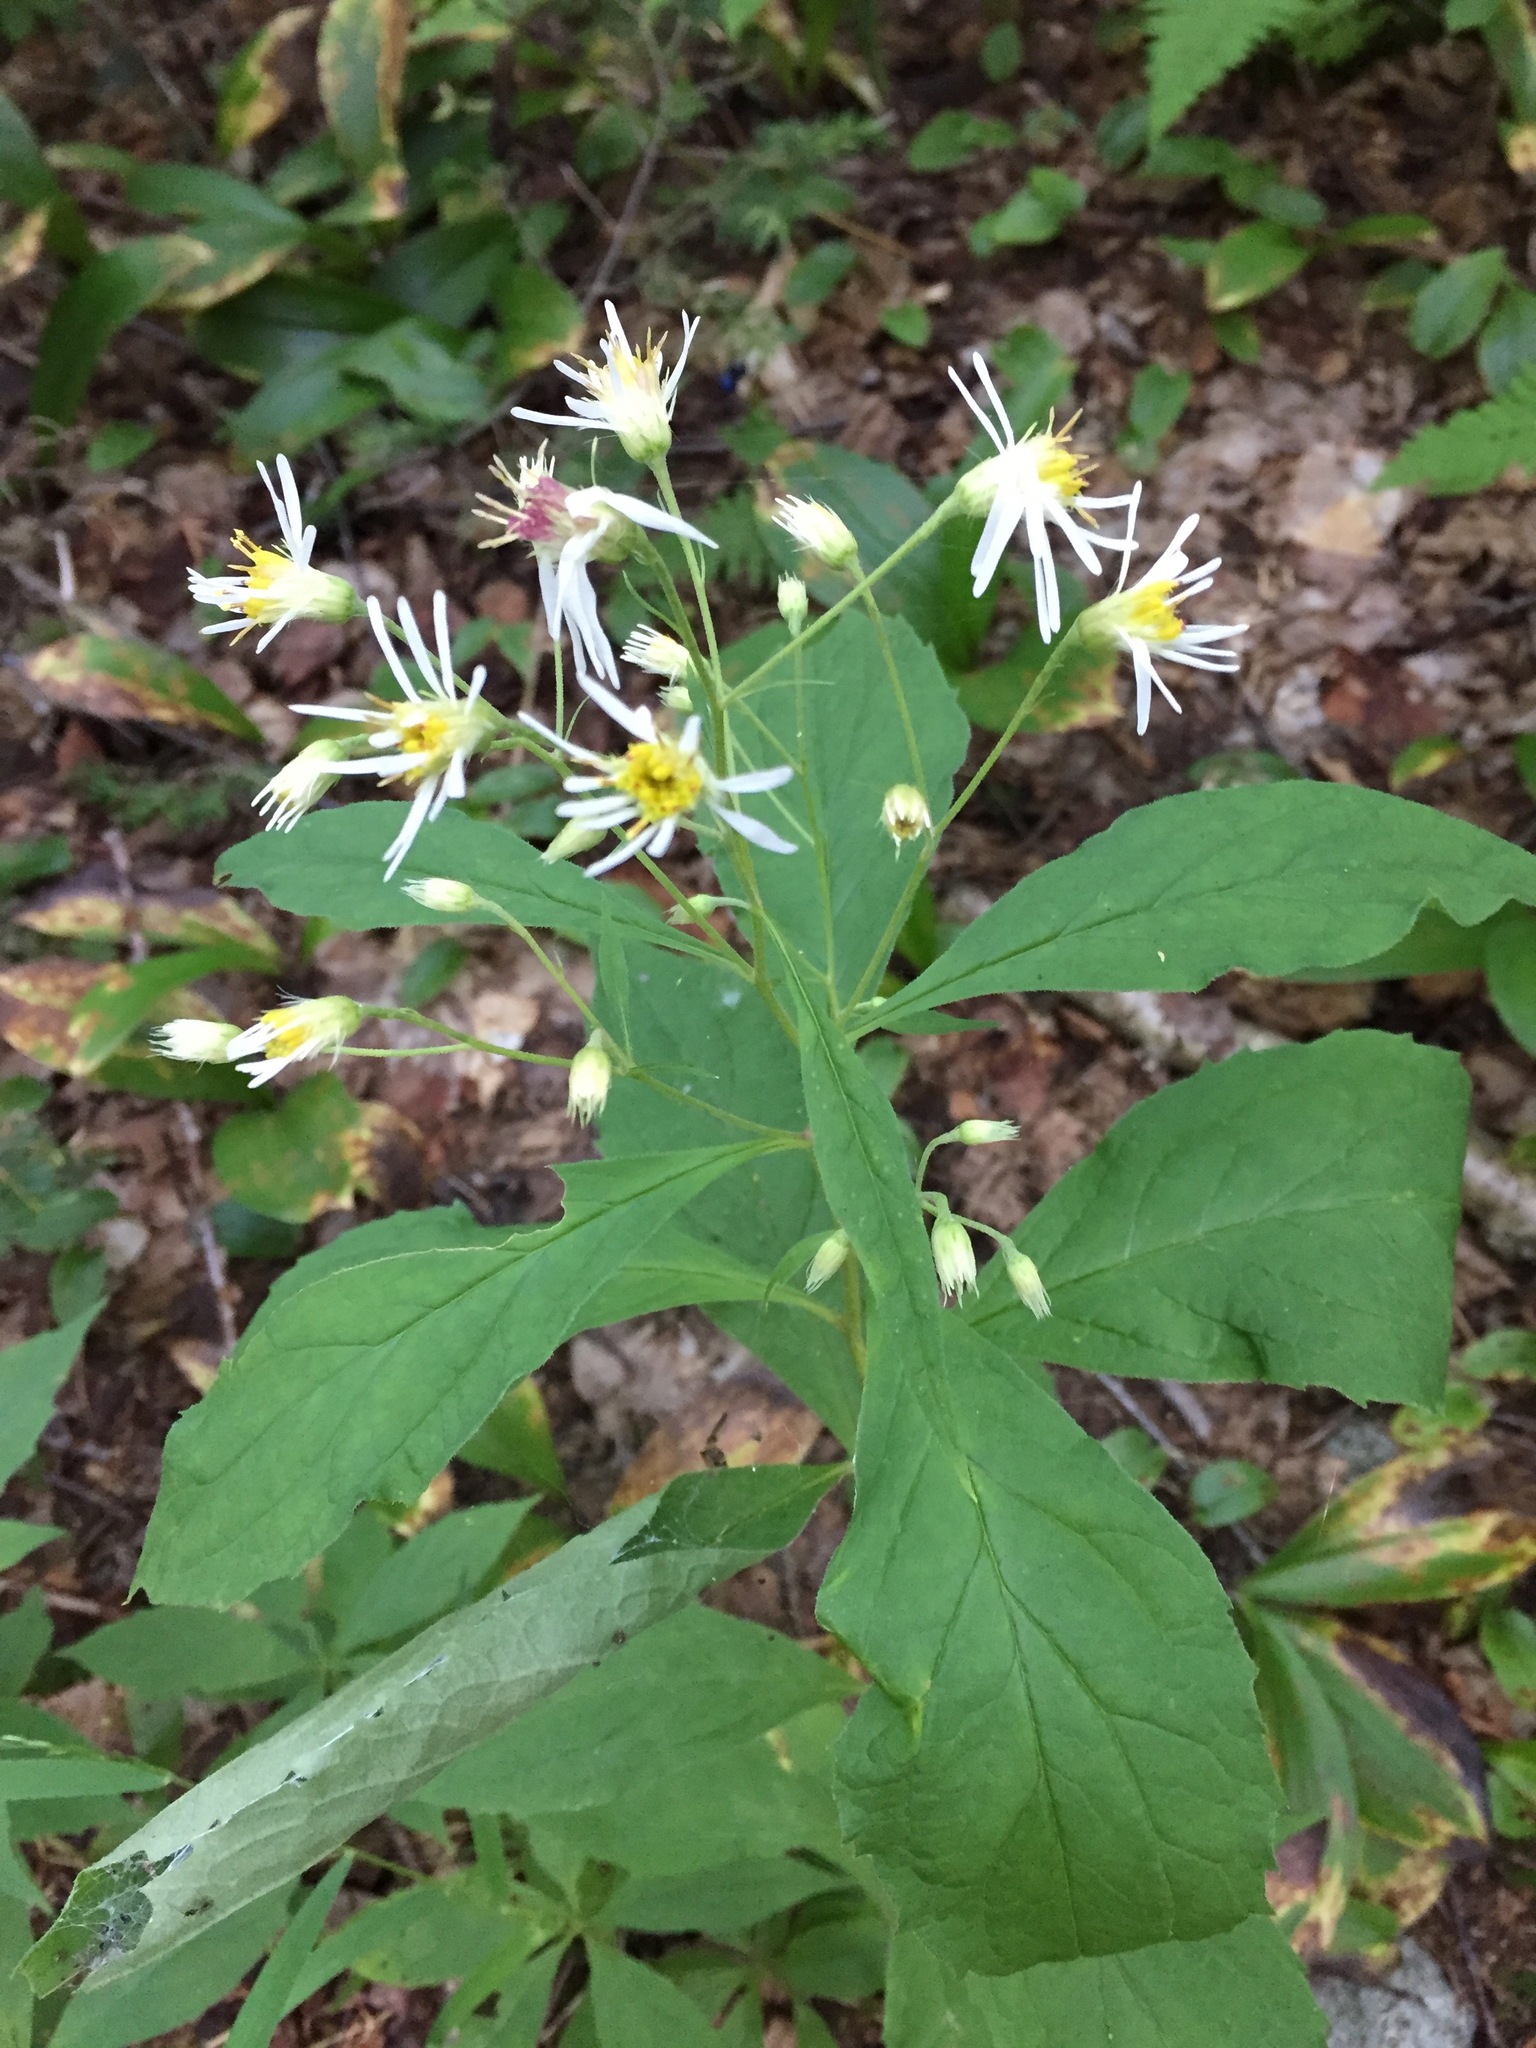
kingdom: Plantae
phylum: Tracheophyta
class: Magnoliopsida
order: Asterales
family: Asteraceae
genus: Oclemena
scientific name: Oclemena acuminata
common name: Mountain aster
